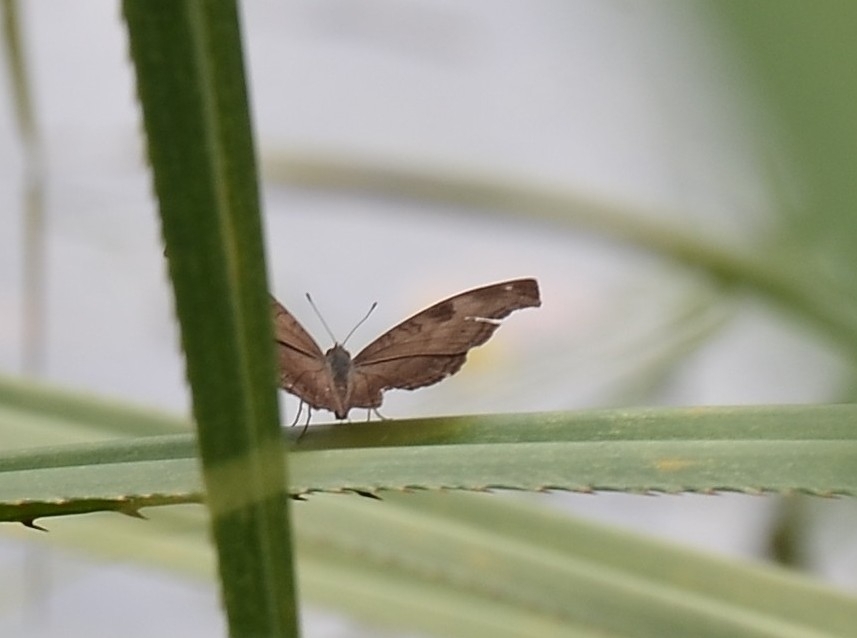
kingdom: Animalia
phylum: Arthropoda
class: Insecta
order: Lepidoptera
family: Nymphalidae
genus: Junonia
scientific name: Junonia iphita
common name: Chocolate pansy
